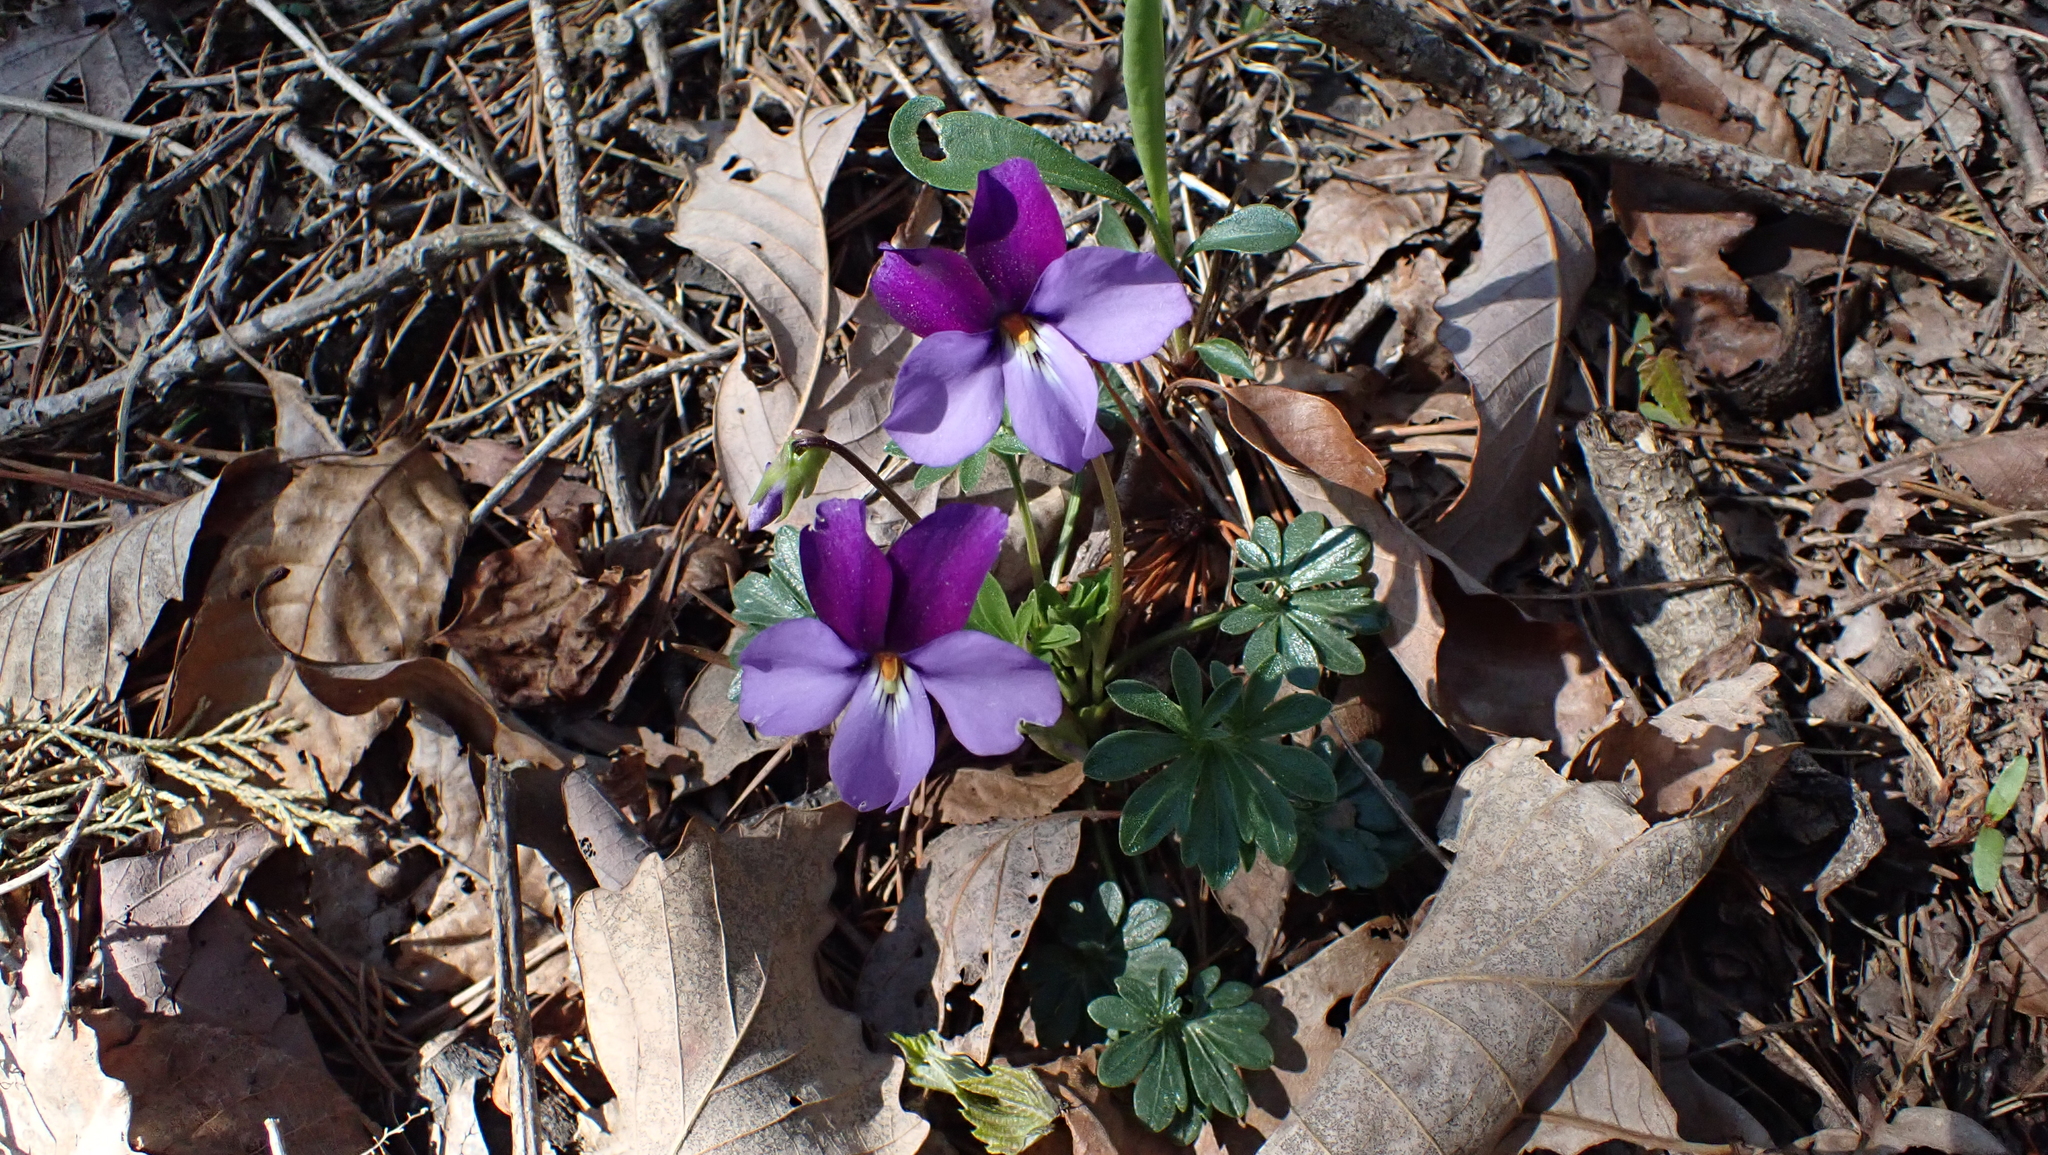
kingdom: Plantae
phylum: Tracheophyta
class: Magnoliopsida
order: Malpighiales
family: Violaceae
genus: Viola
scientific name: Viola pedata
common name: Pansy violet
